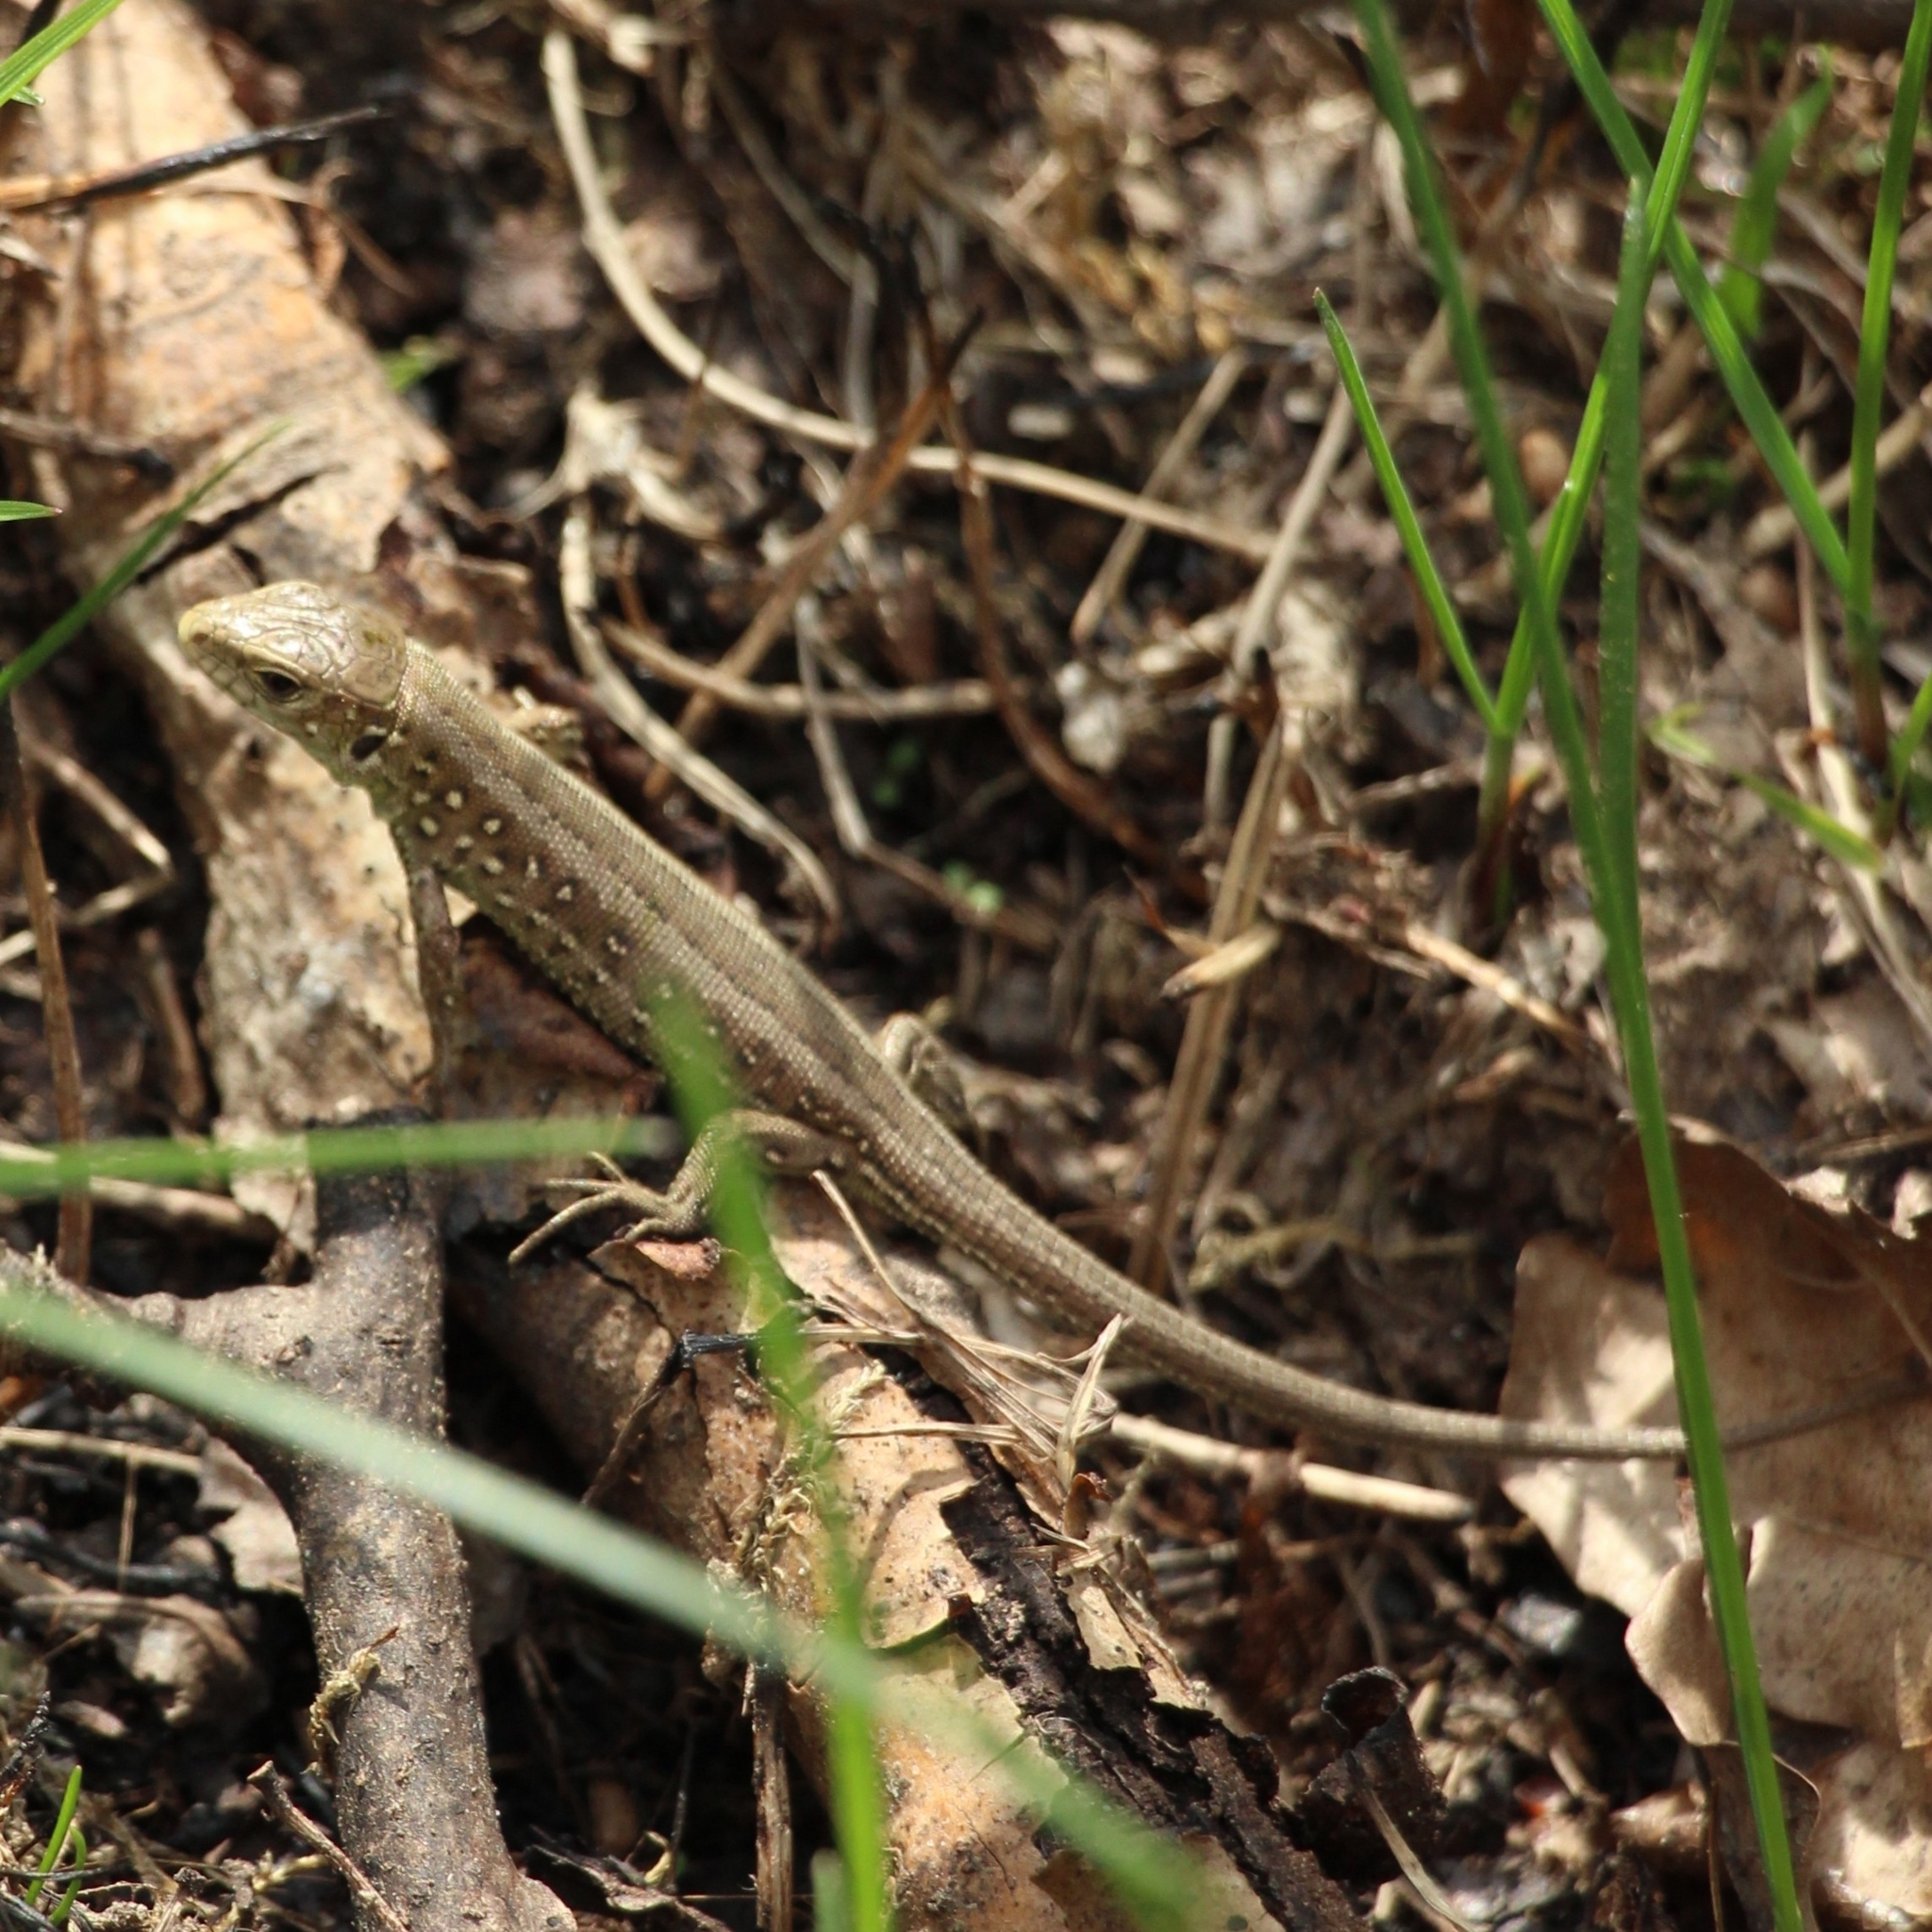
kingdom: Animalia
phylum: Chordata
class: Squamata
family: Lacertidae
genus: Lacerta
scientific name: Lacerta agilis
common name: Sand lizard
